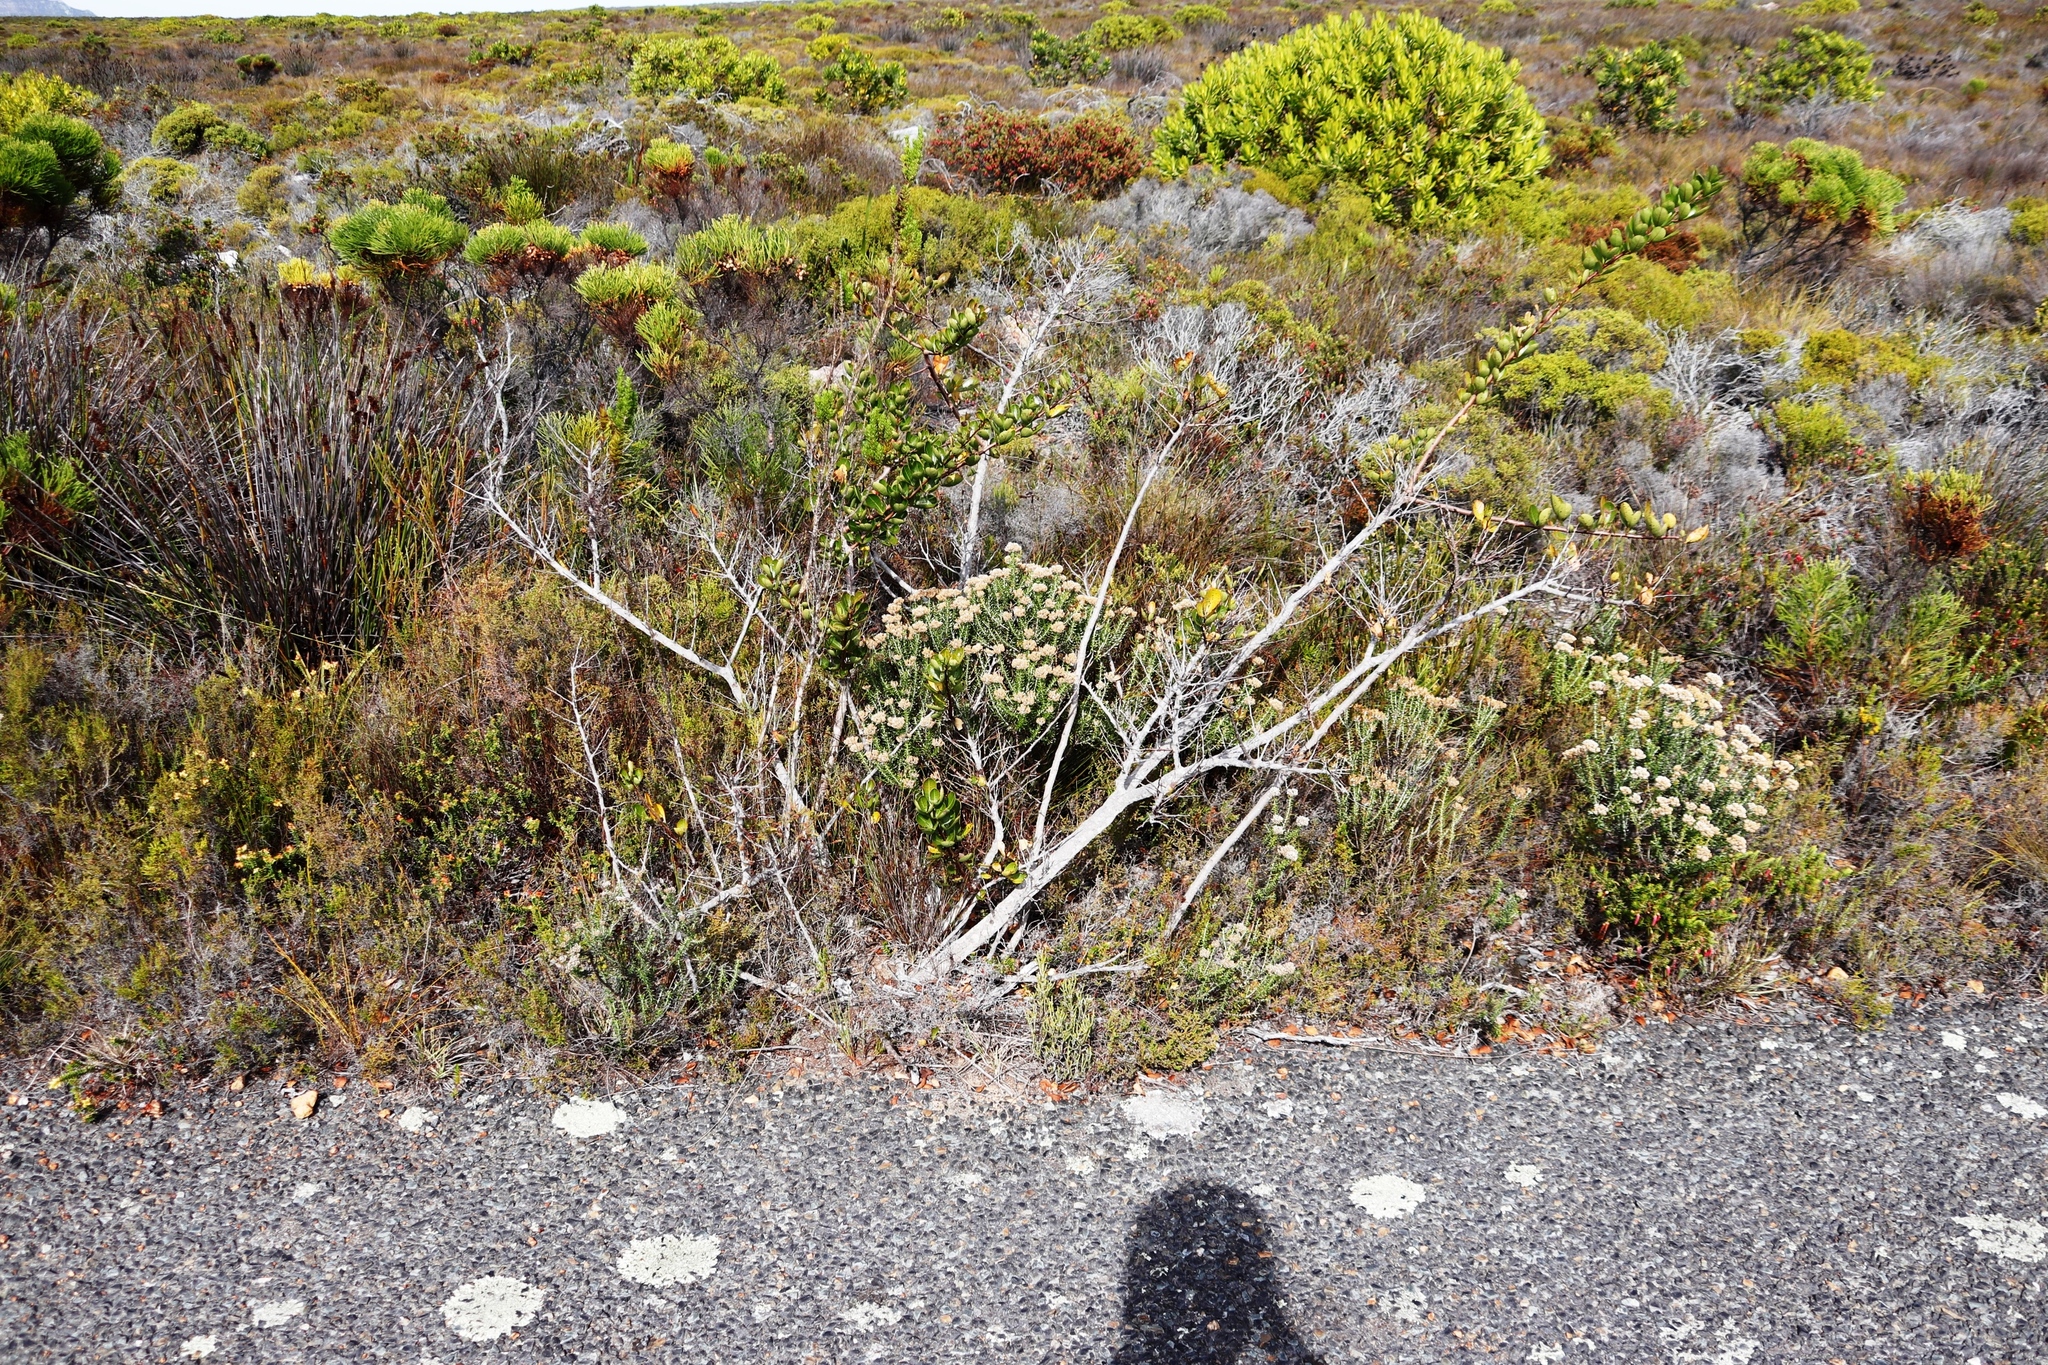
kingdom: Plantae
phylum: Tracheophyta
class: Magnoliopsida
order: Sapindales
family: Anacardiaceae
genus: Searsia
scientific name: Searsia laevigata
